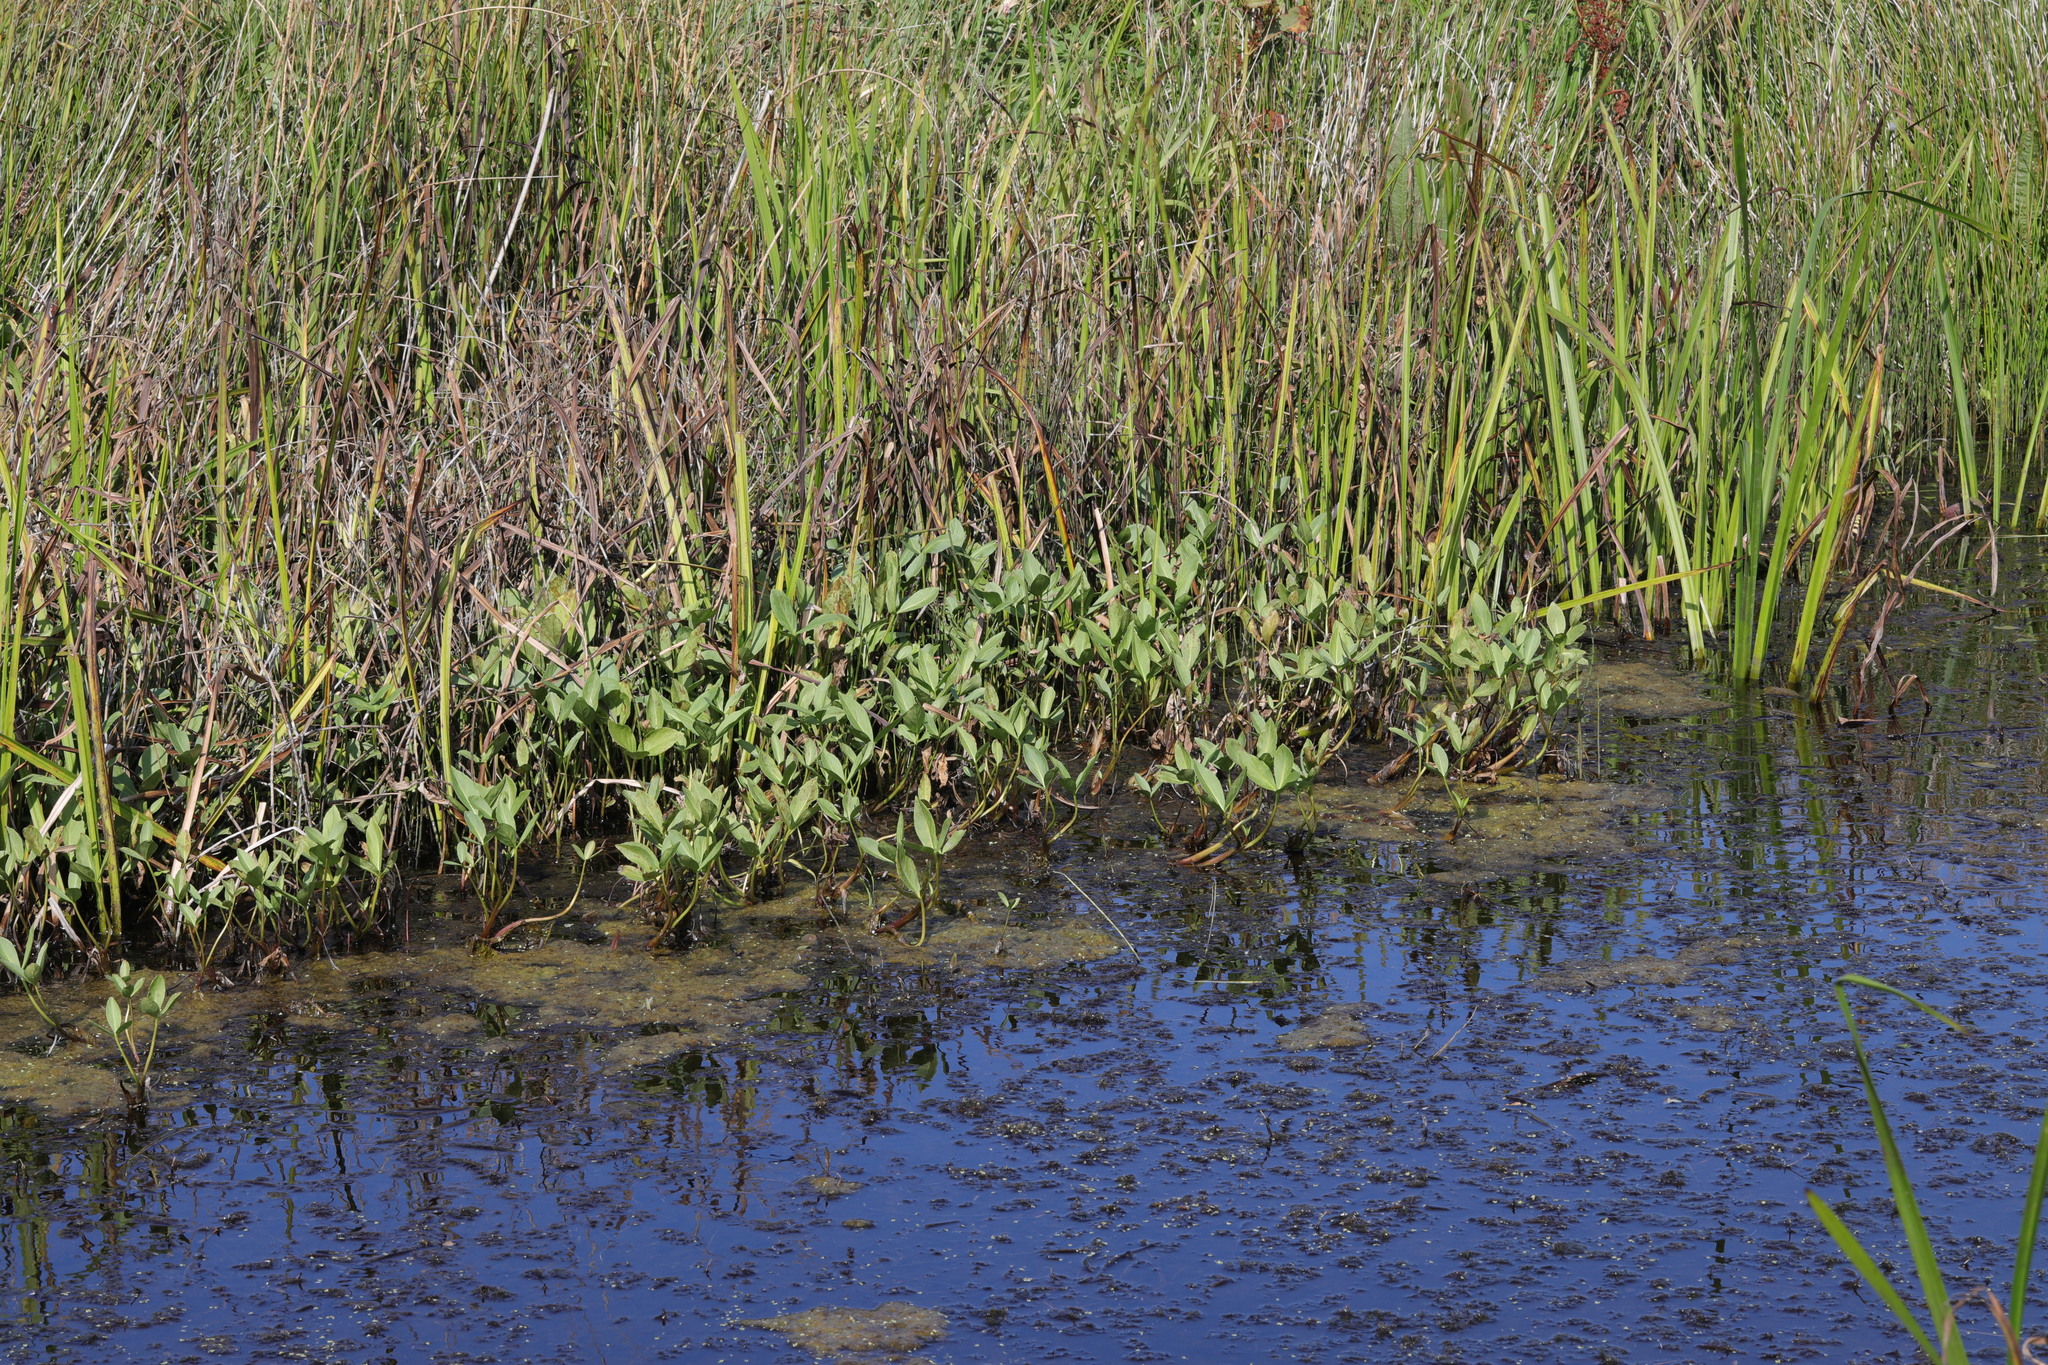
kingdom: Plantae
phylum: Tracheophyta
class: Magnoliopsida
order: Asterales
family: Menyanthaceae
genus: Menyanthes
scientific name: Menyanthes trifoliata
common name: Bogbean
